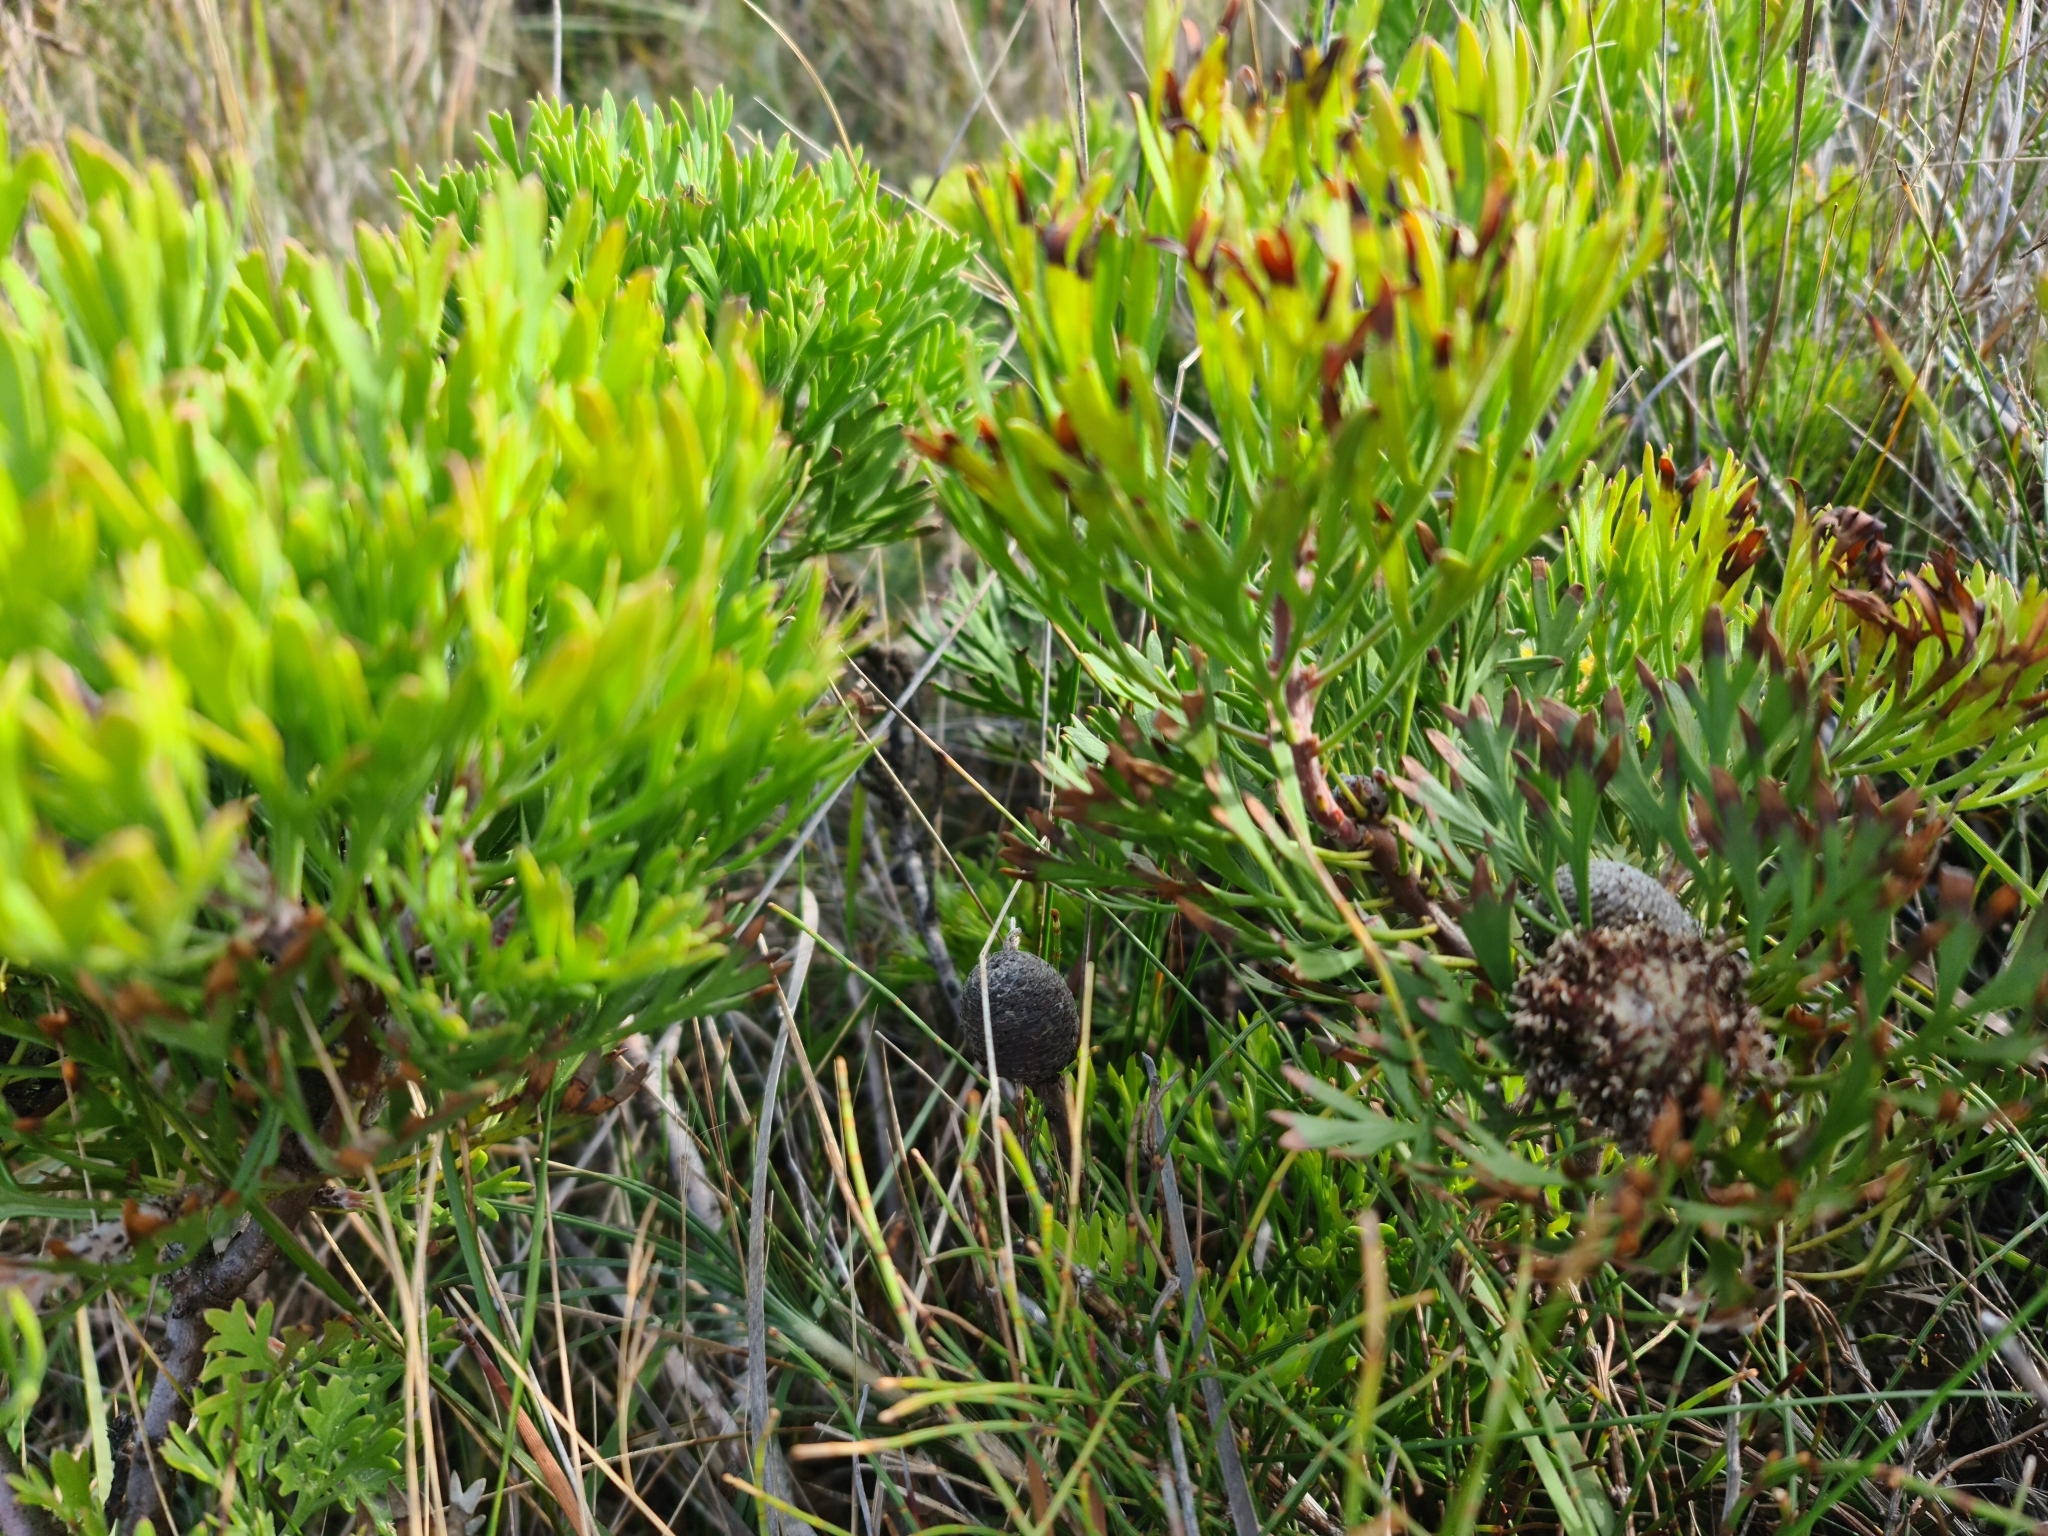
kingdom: Plantae
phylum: Tracheophyta
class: Magnoliopsida
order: Proteales
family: Proteaceae
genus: Isopogon
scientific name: Isopogon anemonifolius
